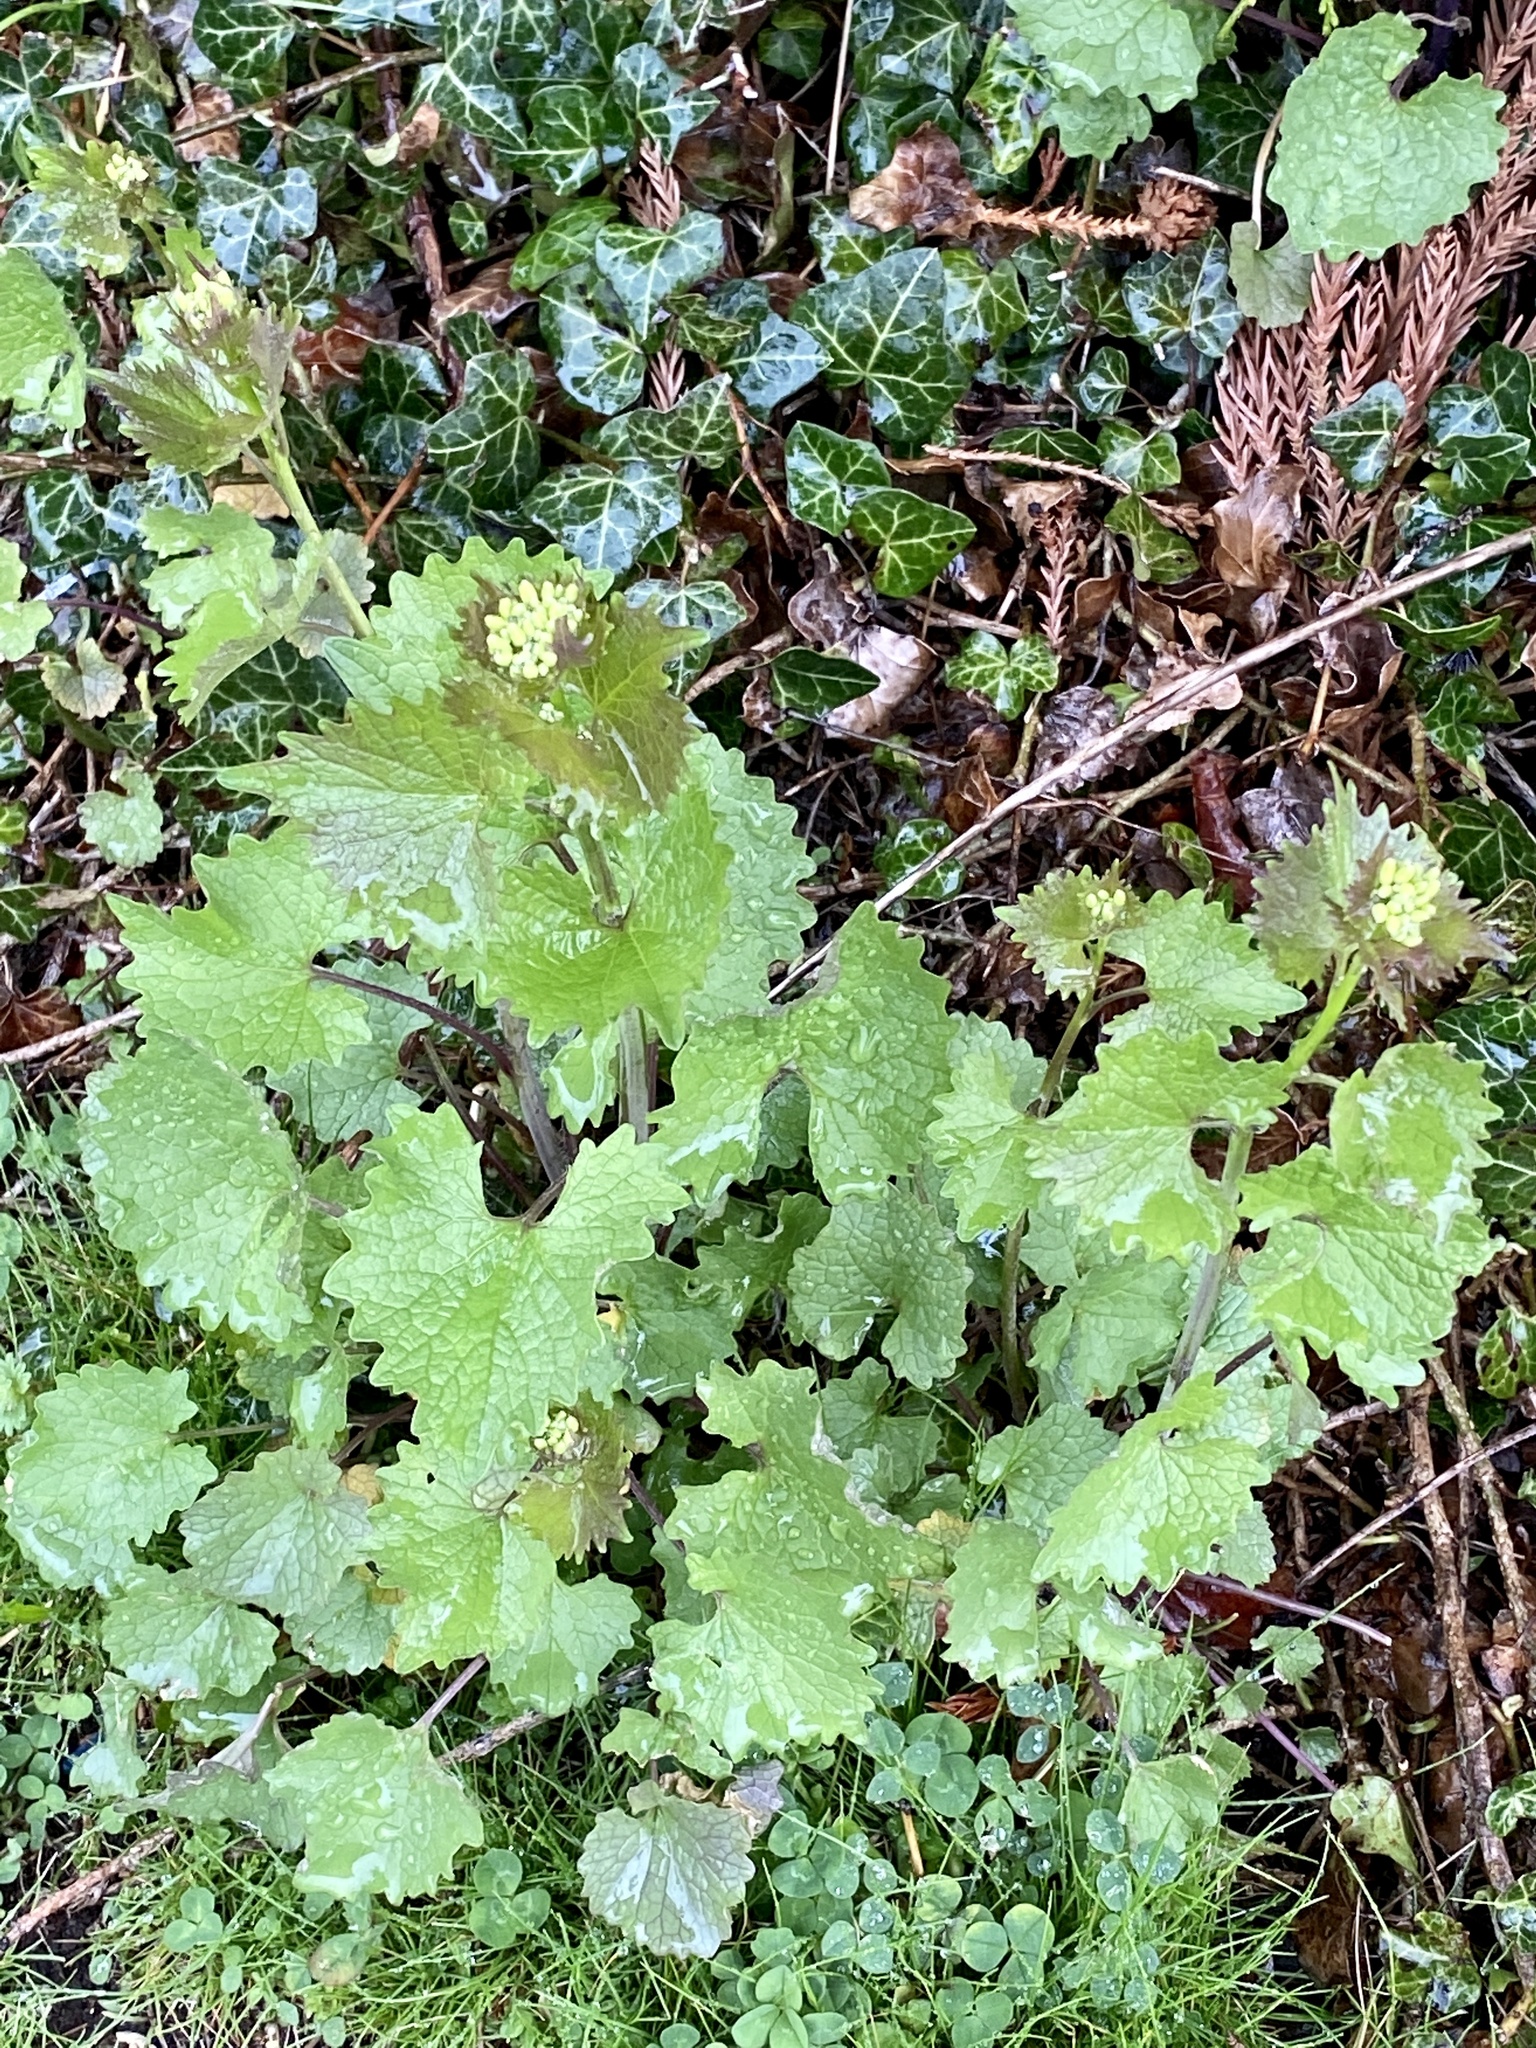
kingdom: Plantae
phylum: Tracheophyta
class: Magnoliopsida
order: Brassicales
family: Brassicaceae
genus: Alliaria
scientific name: Alliaria petiolata
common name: Garlic mustard
